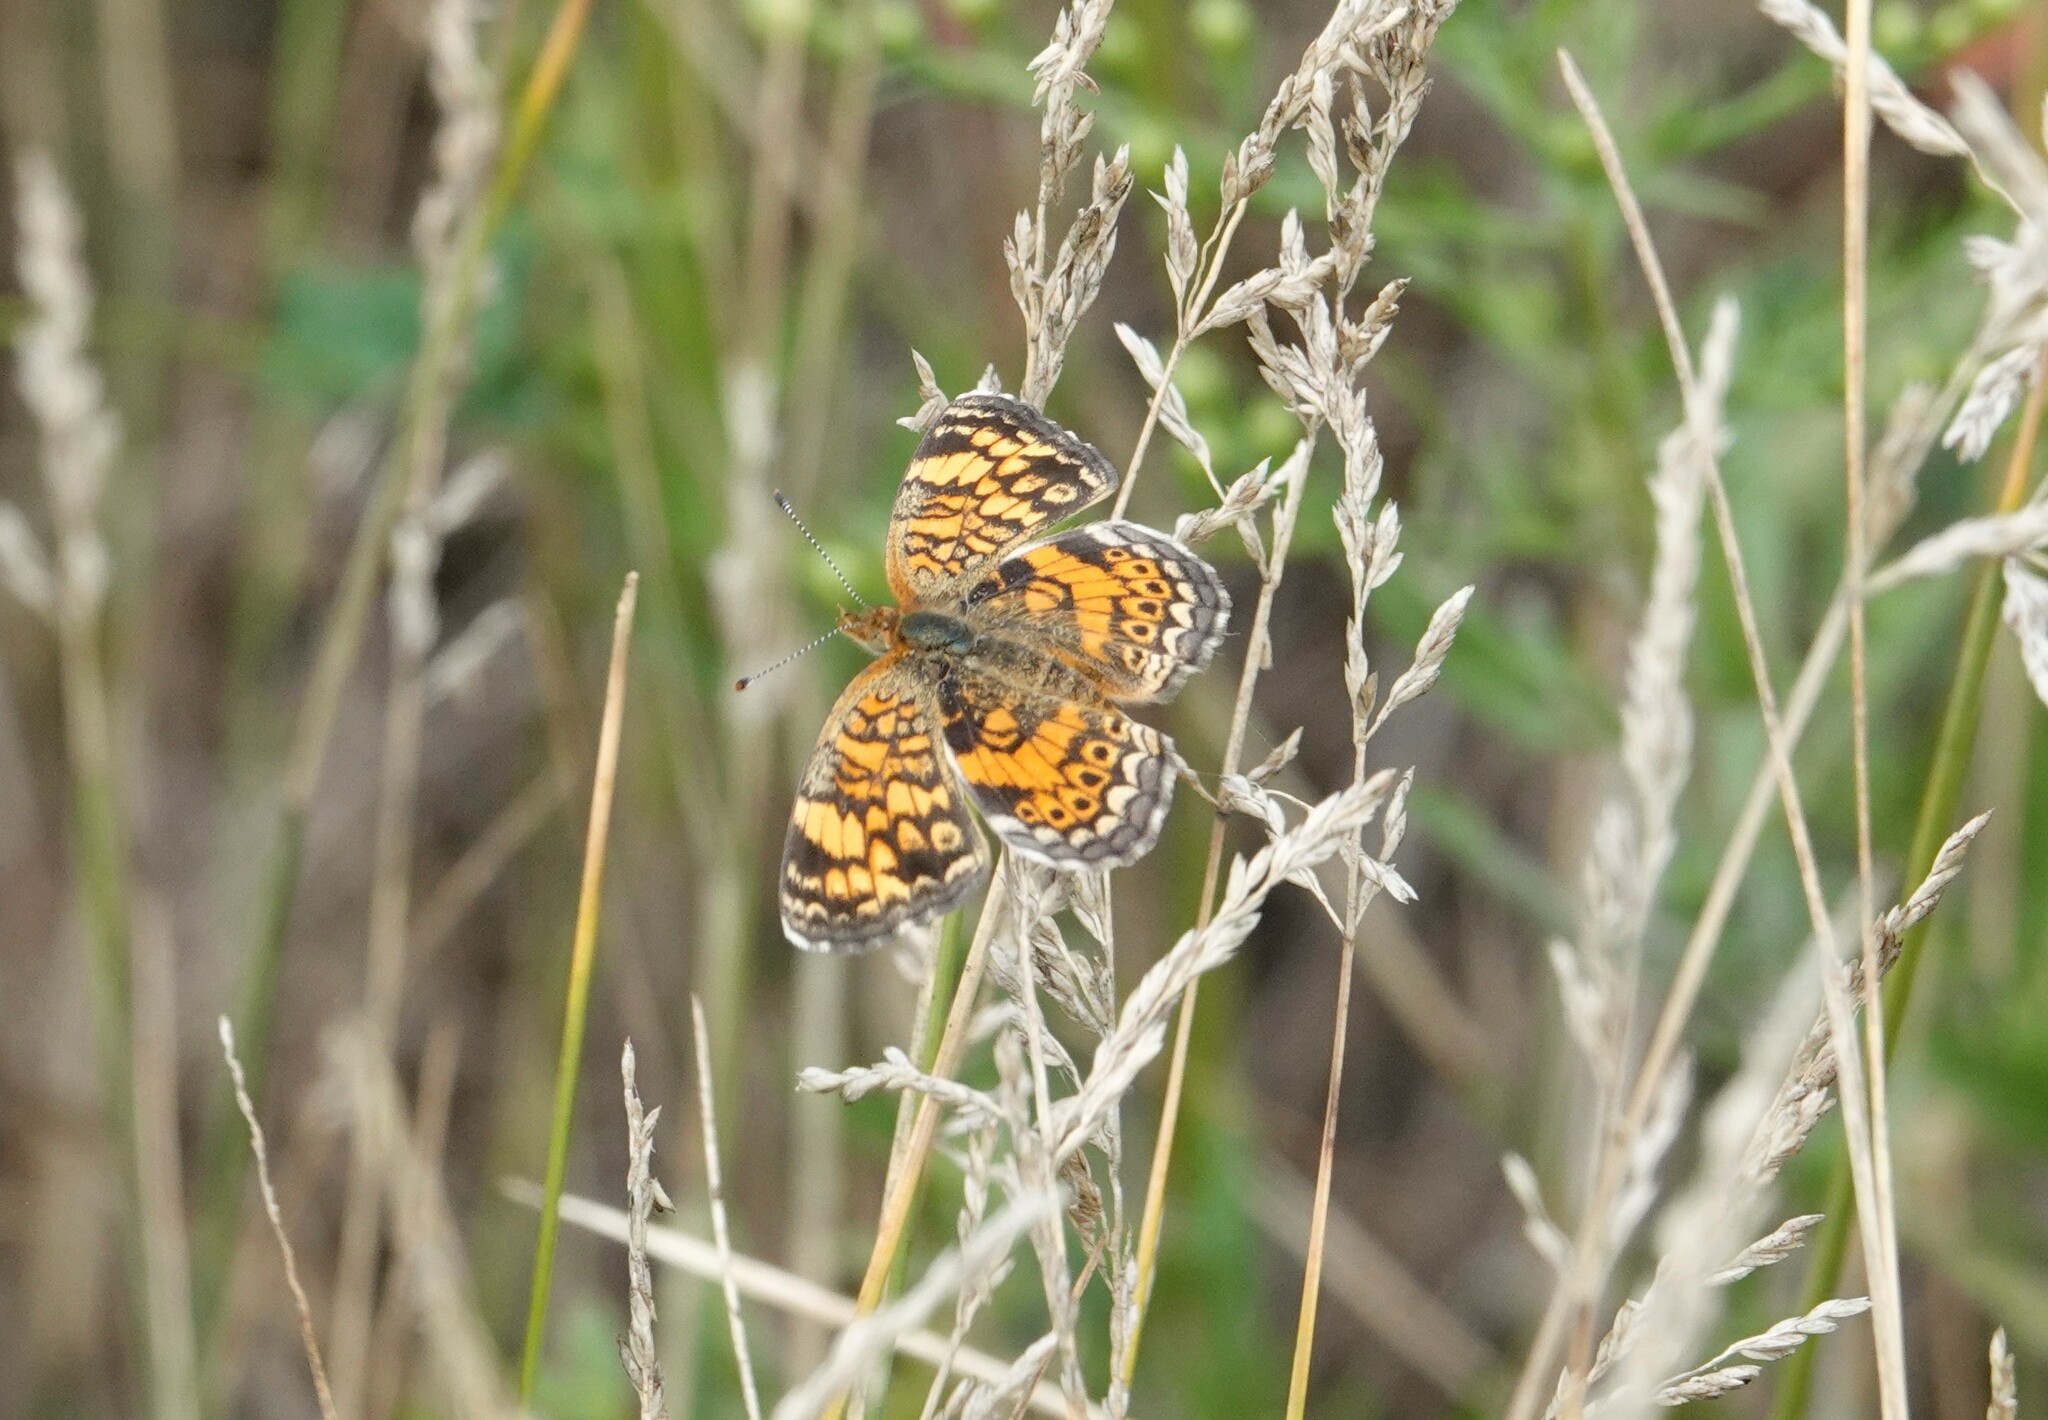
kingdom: Animalia
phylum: Arthropoda
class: Insecta
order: Lepidoptera
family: Nymphalidae
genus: Phyciodes
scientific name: Phyciodes tharos
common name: Pearl crescent
